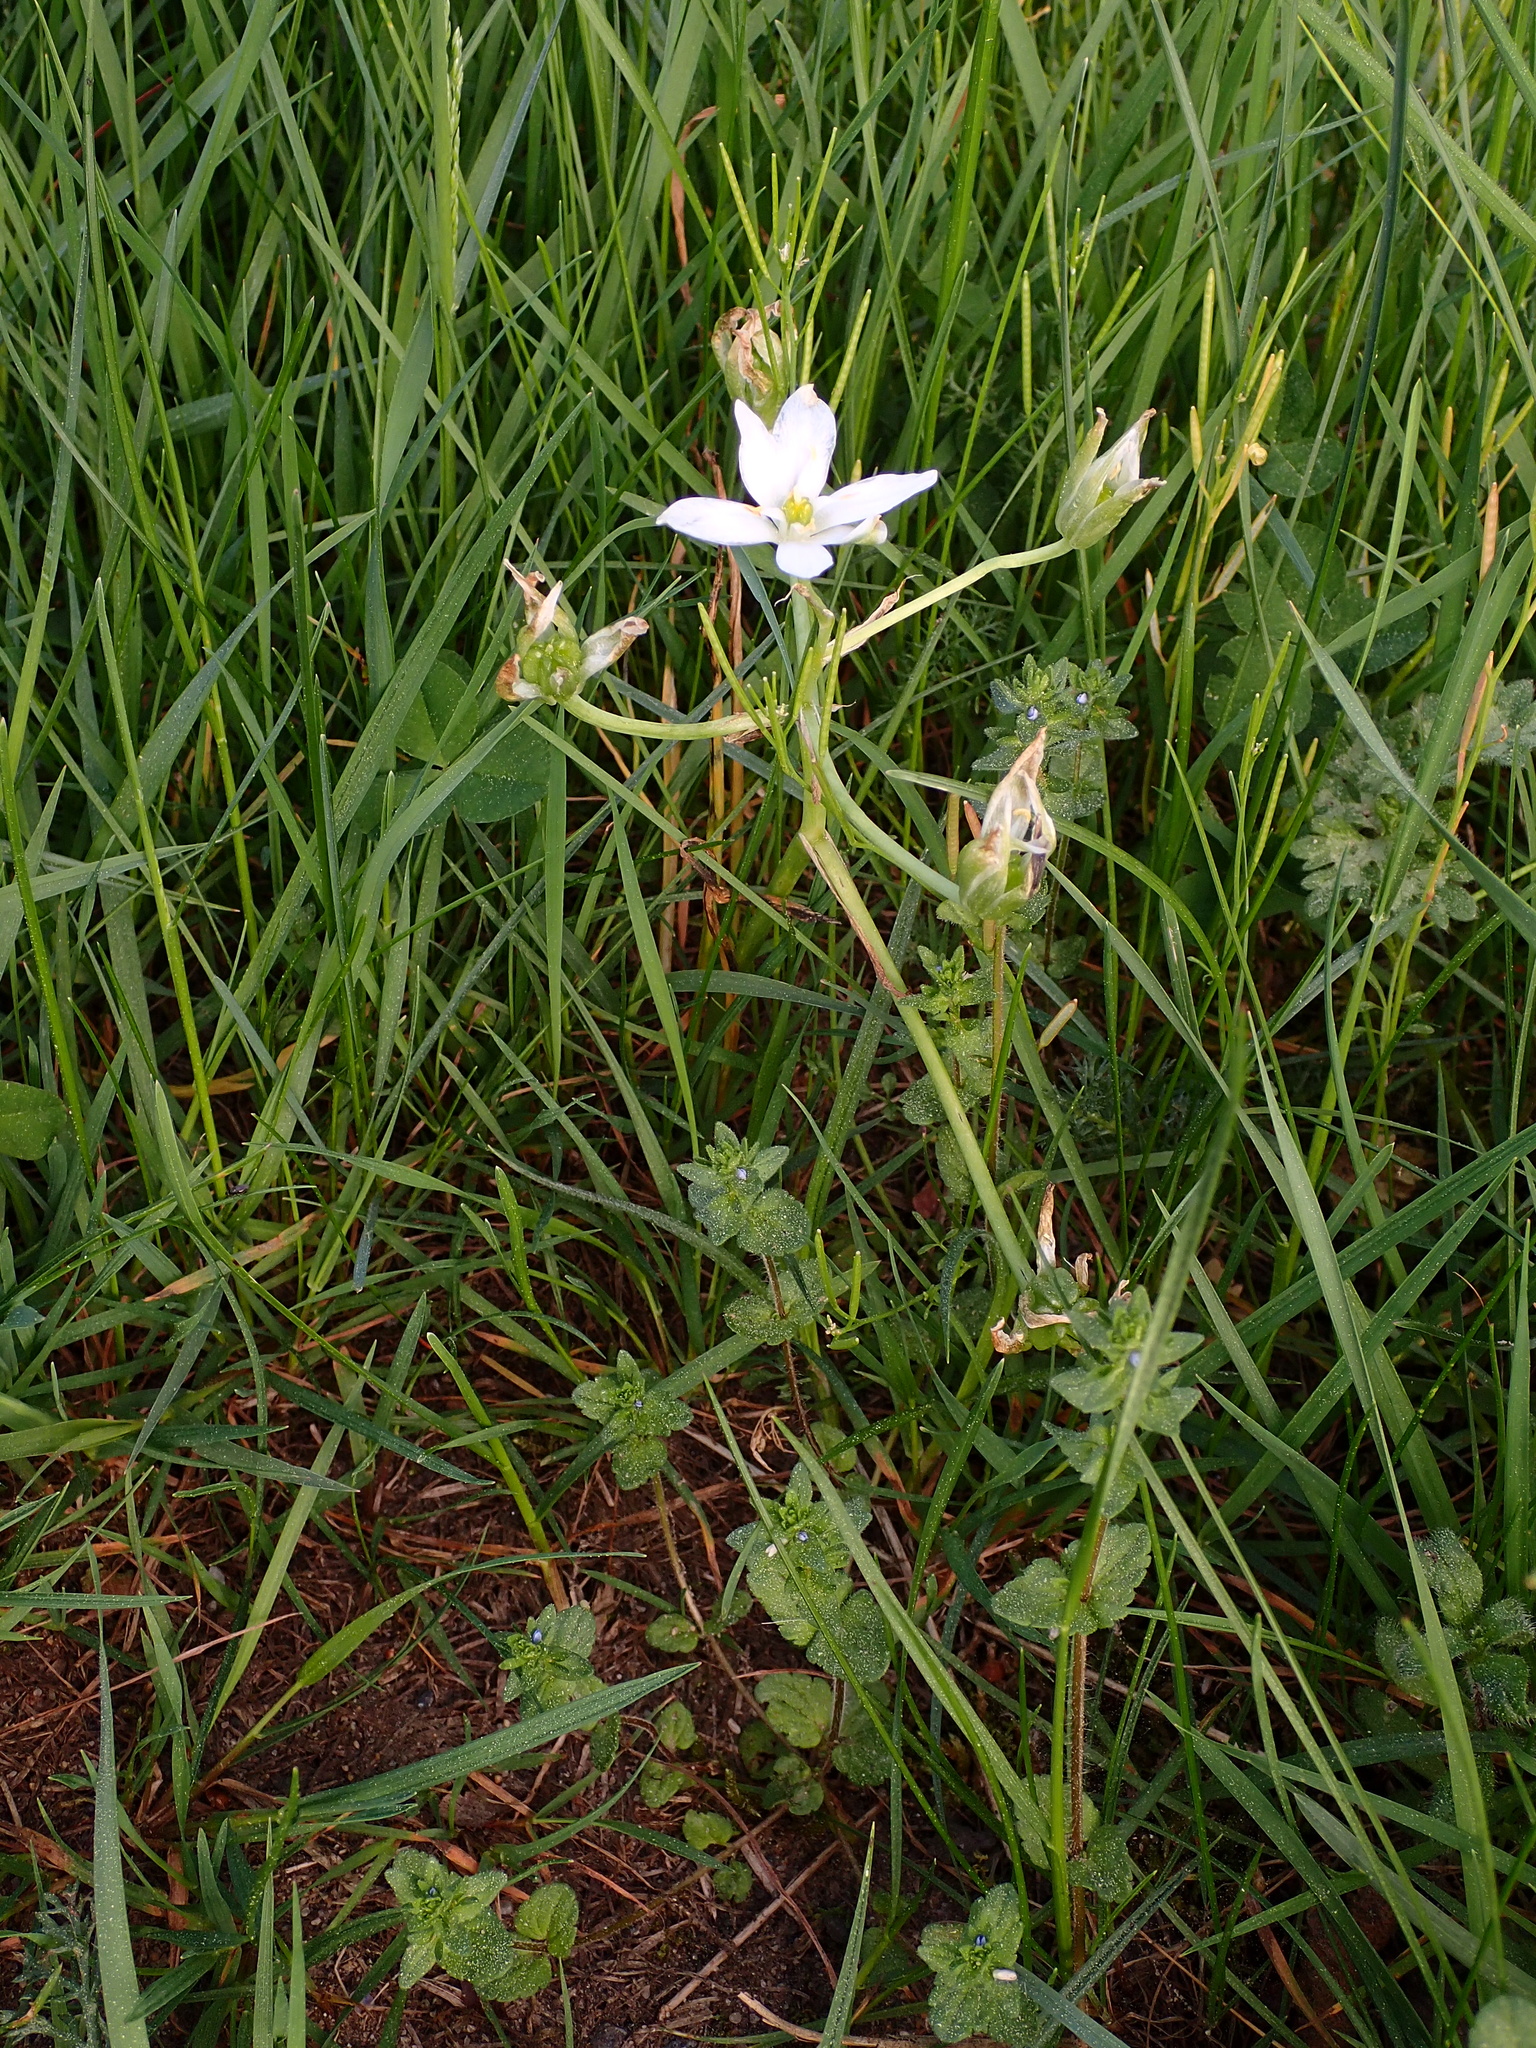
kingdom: Plantae
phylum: Tracheophyta
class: Liliopsida
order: Asparagales
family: Asparagaceae
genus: Ornithogalum
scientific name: Ornithogalum umbellatum
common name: Garden star-of-bethlehem
